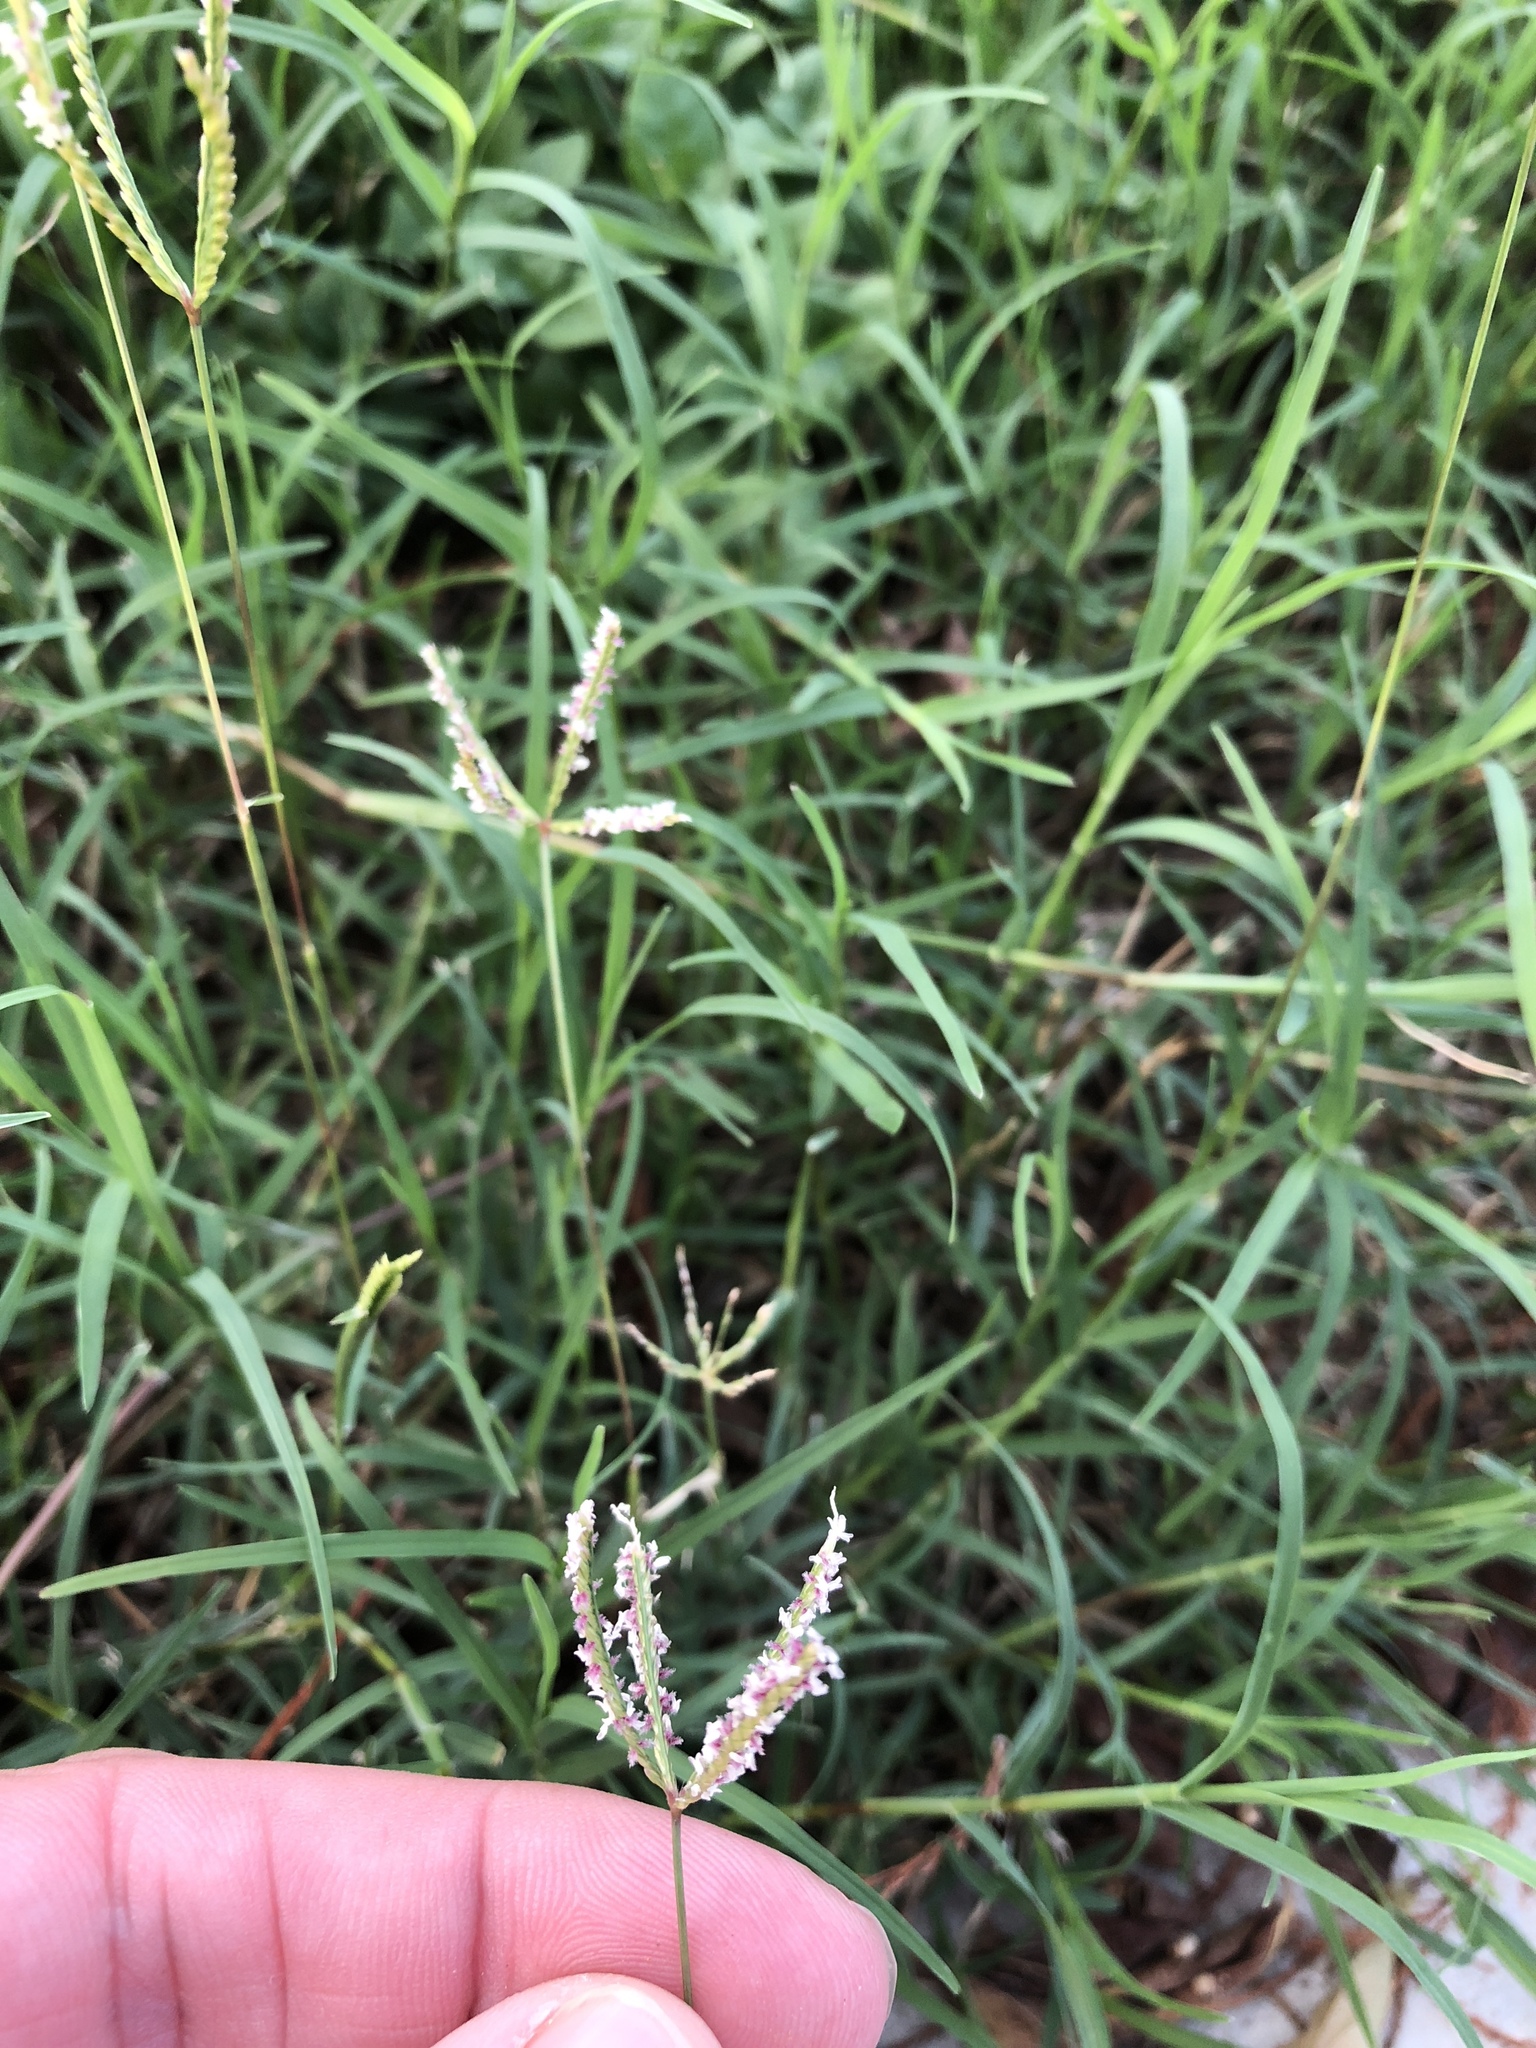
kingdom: Plantae
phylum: Tracheophyta
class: Liliopsida
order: Poales
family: Poaceae
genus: Cynodon
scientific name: Cynodon dactylon
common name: Bermuda grass
